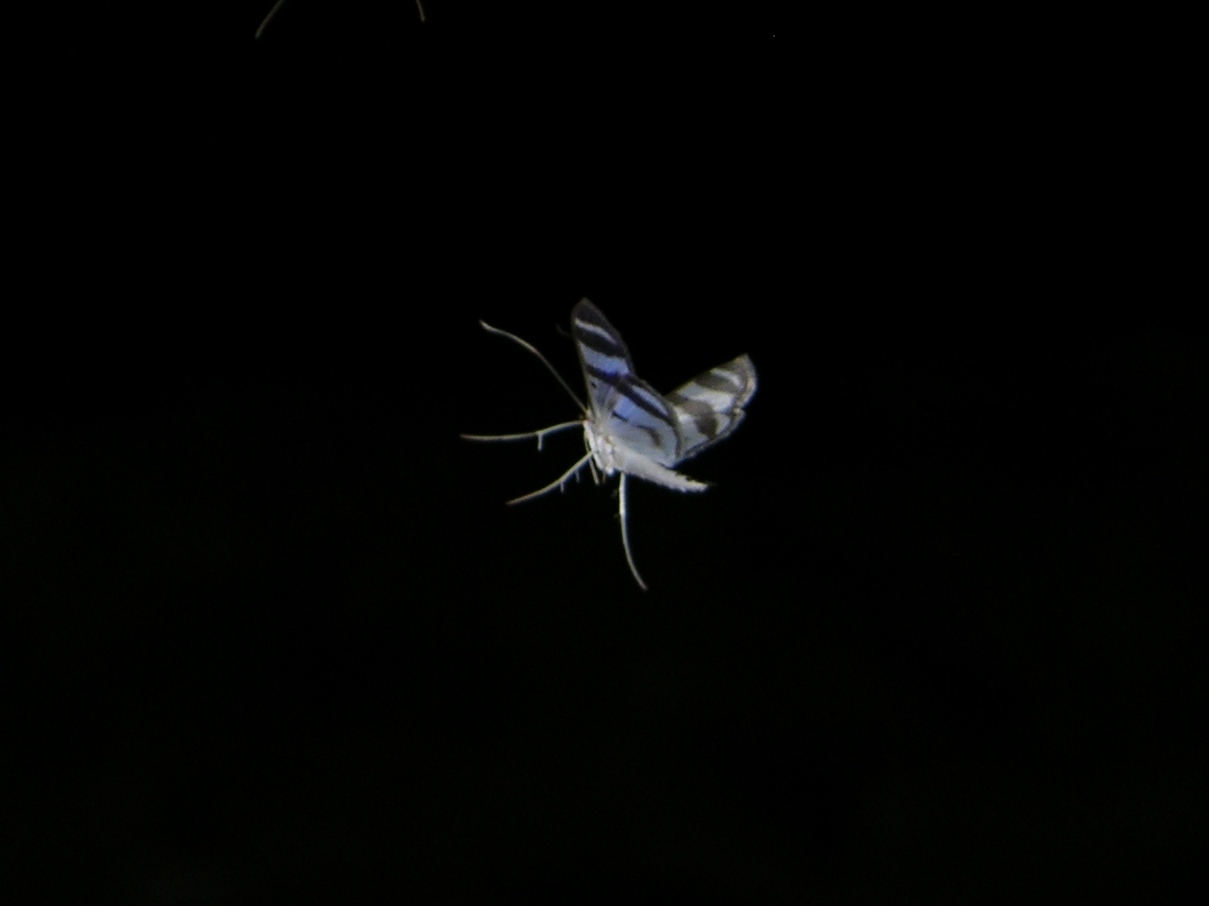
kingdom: Animalia
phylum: Arthropoda
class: Insecta
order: Lepidoptera
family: Crambidae
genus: Zebronia
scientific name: Zebronia phenice
